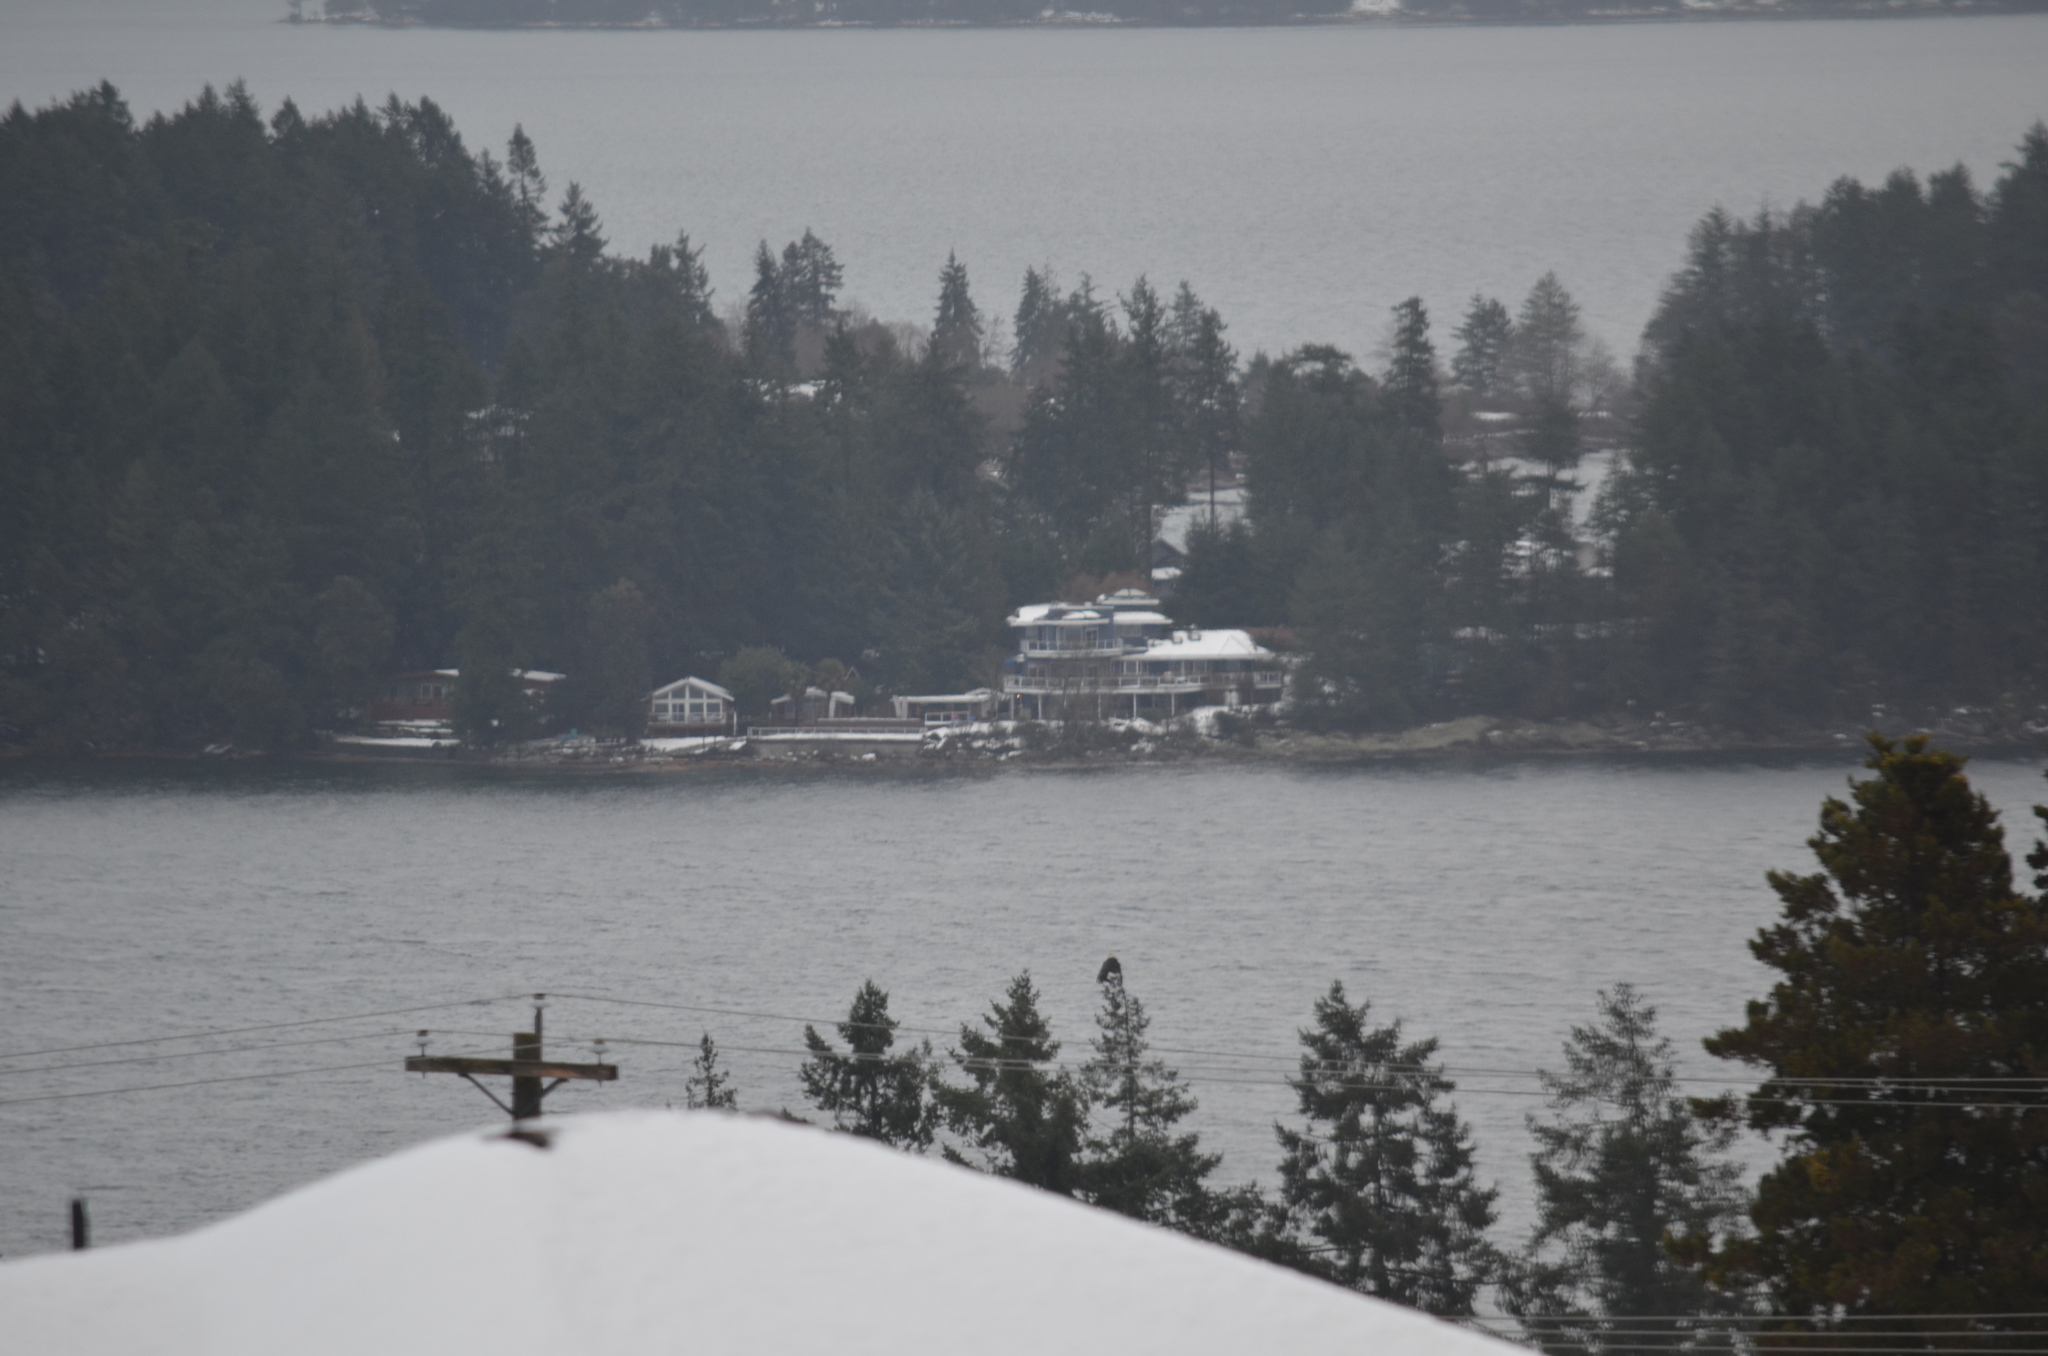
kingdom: Animalia
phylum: Chordata
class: Aves
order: Accipitriformes
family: Accipitridae
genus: Haliaeetus
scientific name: Haliaeetus leucocephalus
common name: Bald eagle
